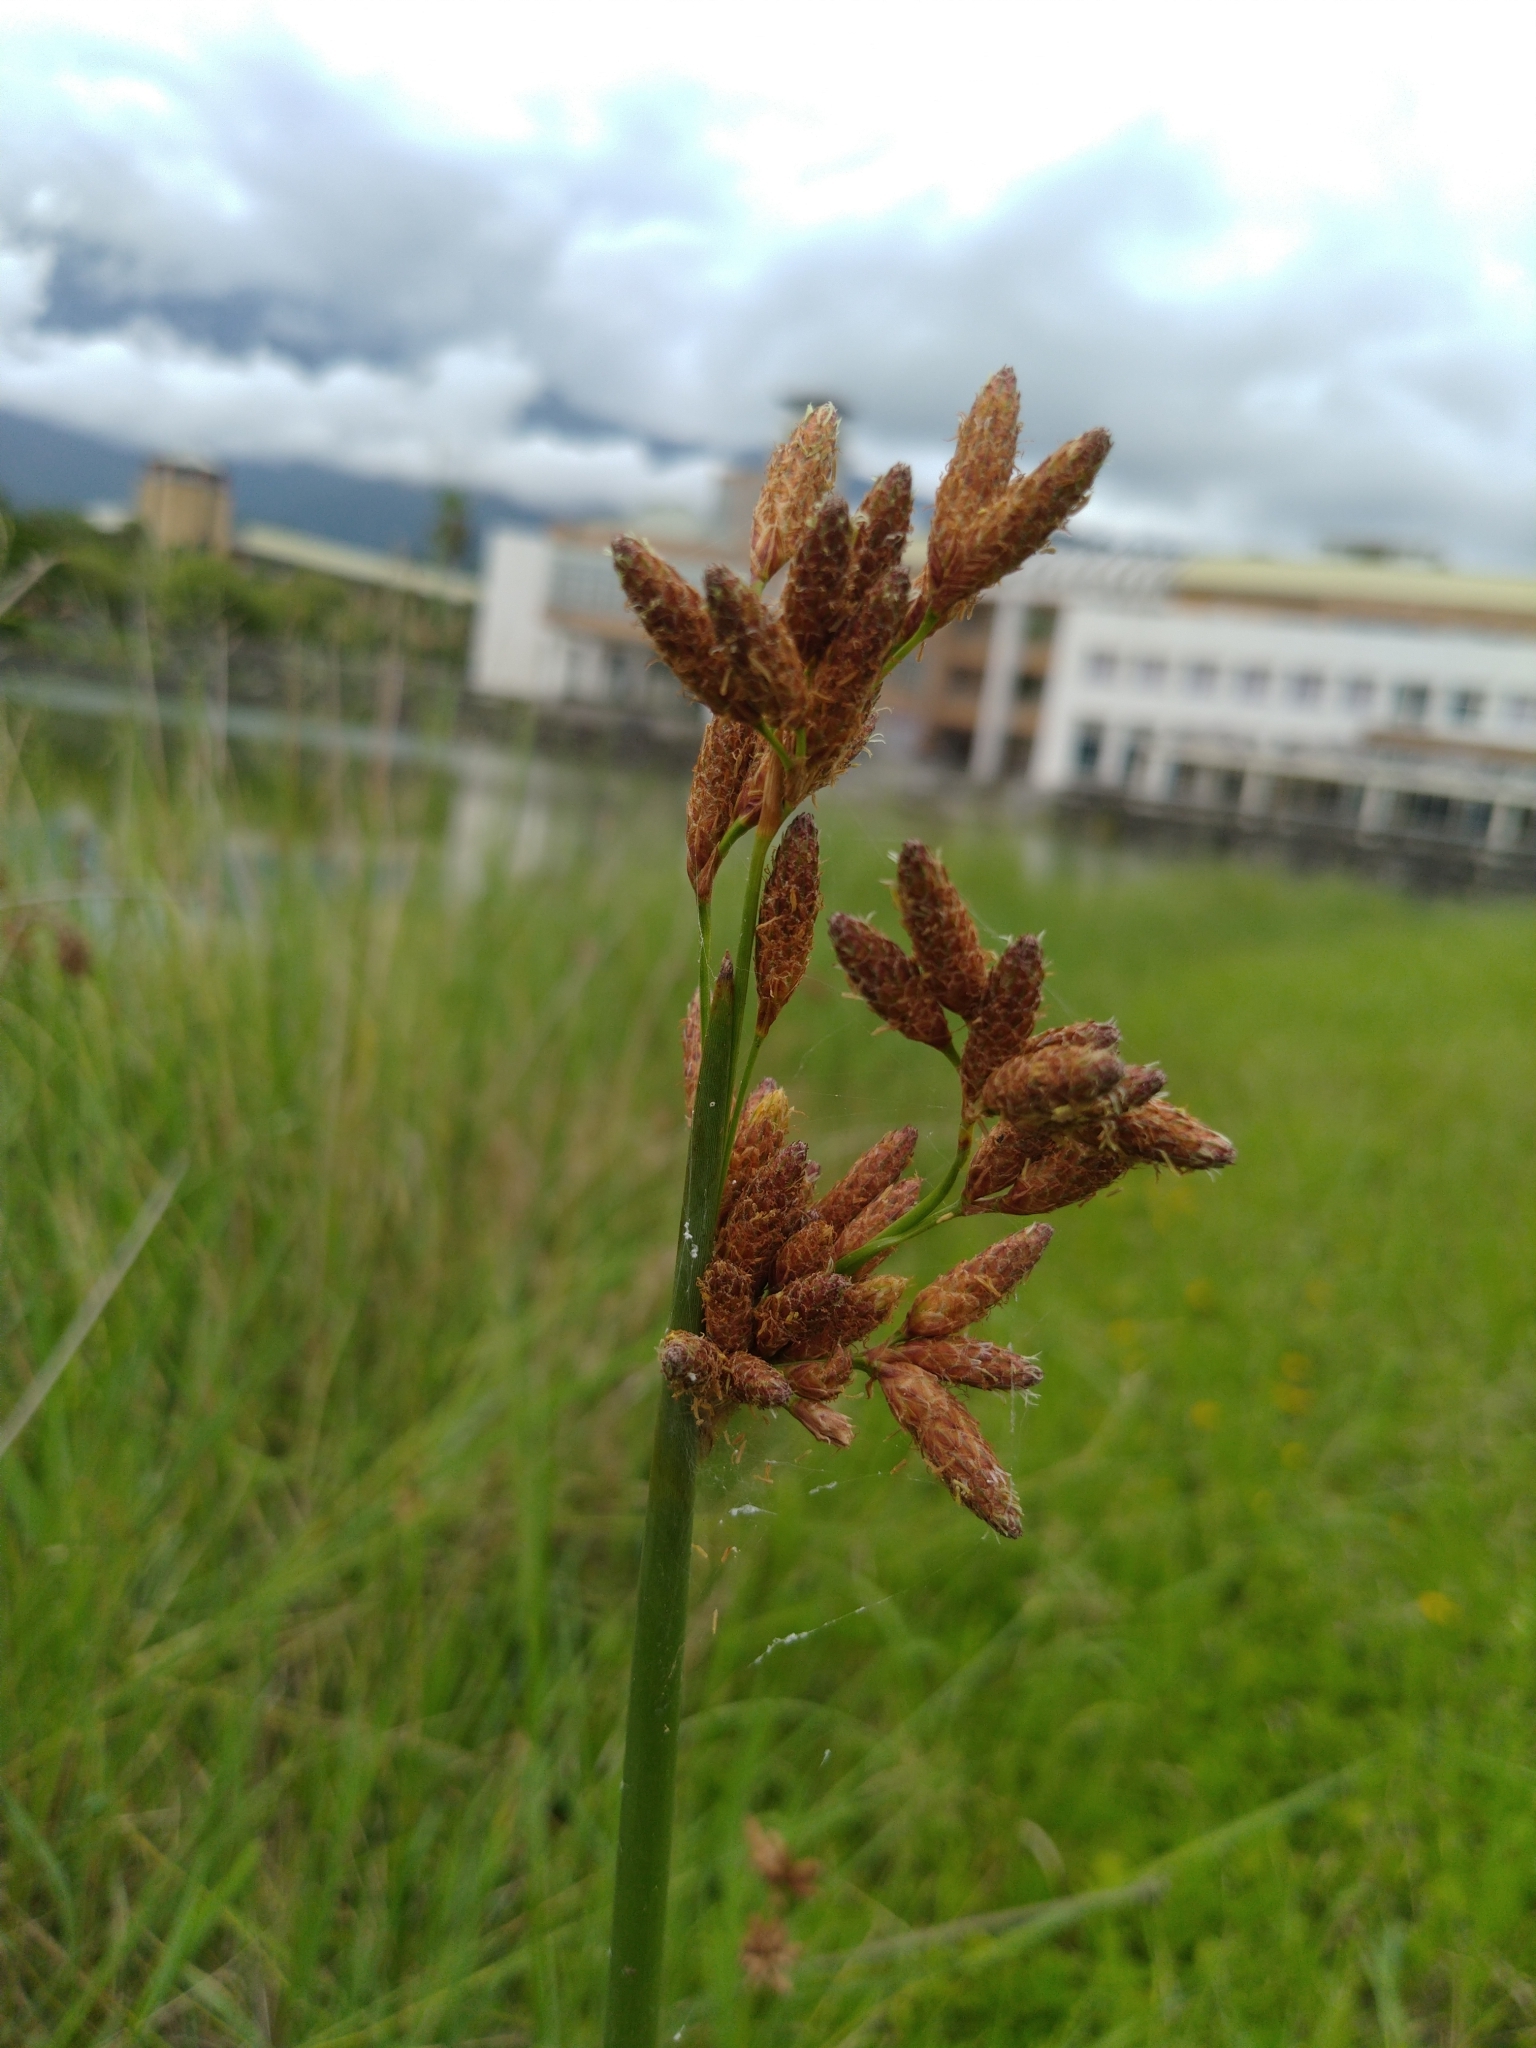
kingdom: Plantae
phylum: Tracheophyta
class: Liliopsida
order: Poales
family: Cyperaceae
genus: Schoenoplectus
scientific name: Schoenoplectus tabernaemontani
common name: Grey club-rush
